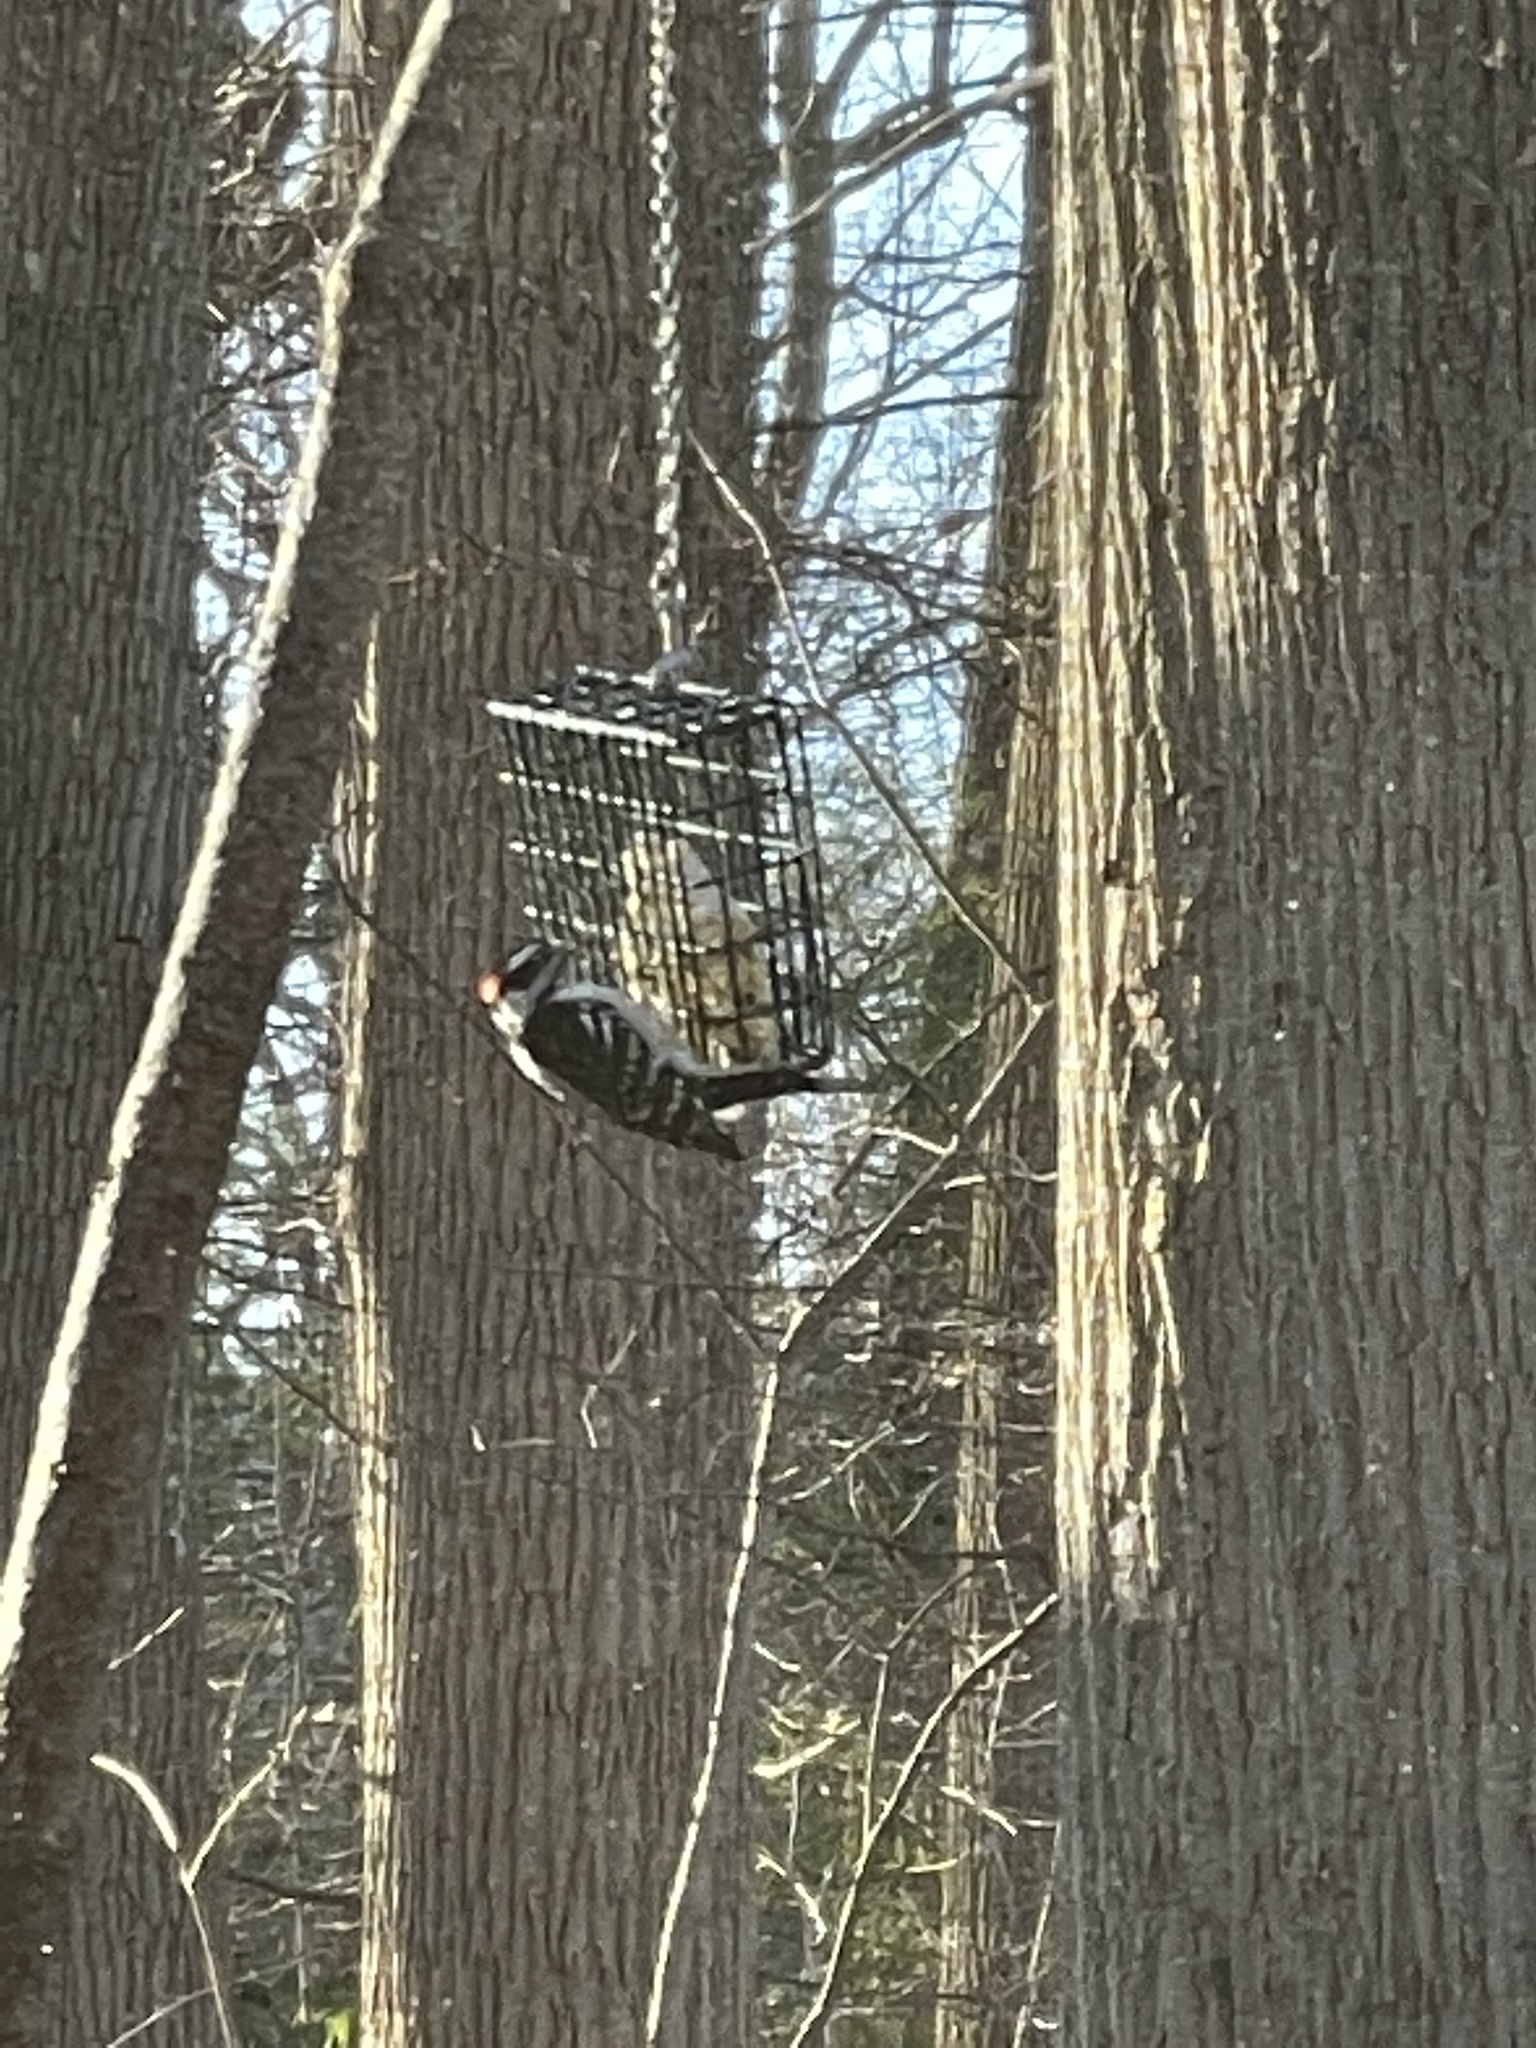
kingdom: Animalia
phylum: Chordata
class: Aves
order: Piciformes
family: Picidae
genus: Dryobates
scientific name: Dryobates pubescens
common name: Downy woodpecker
